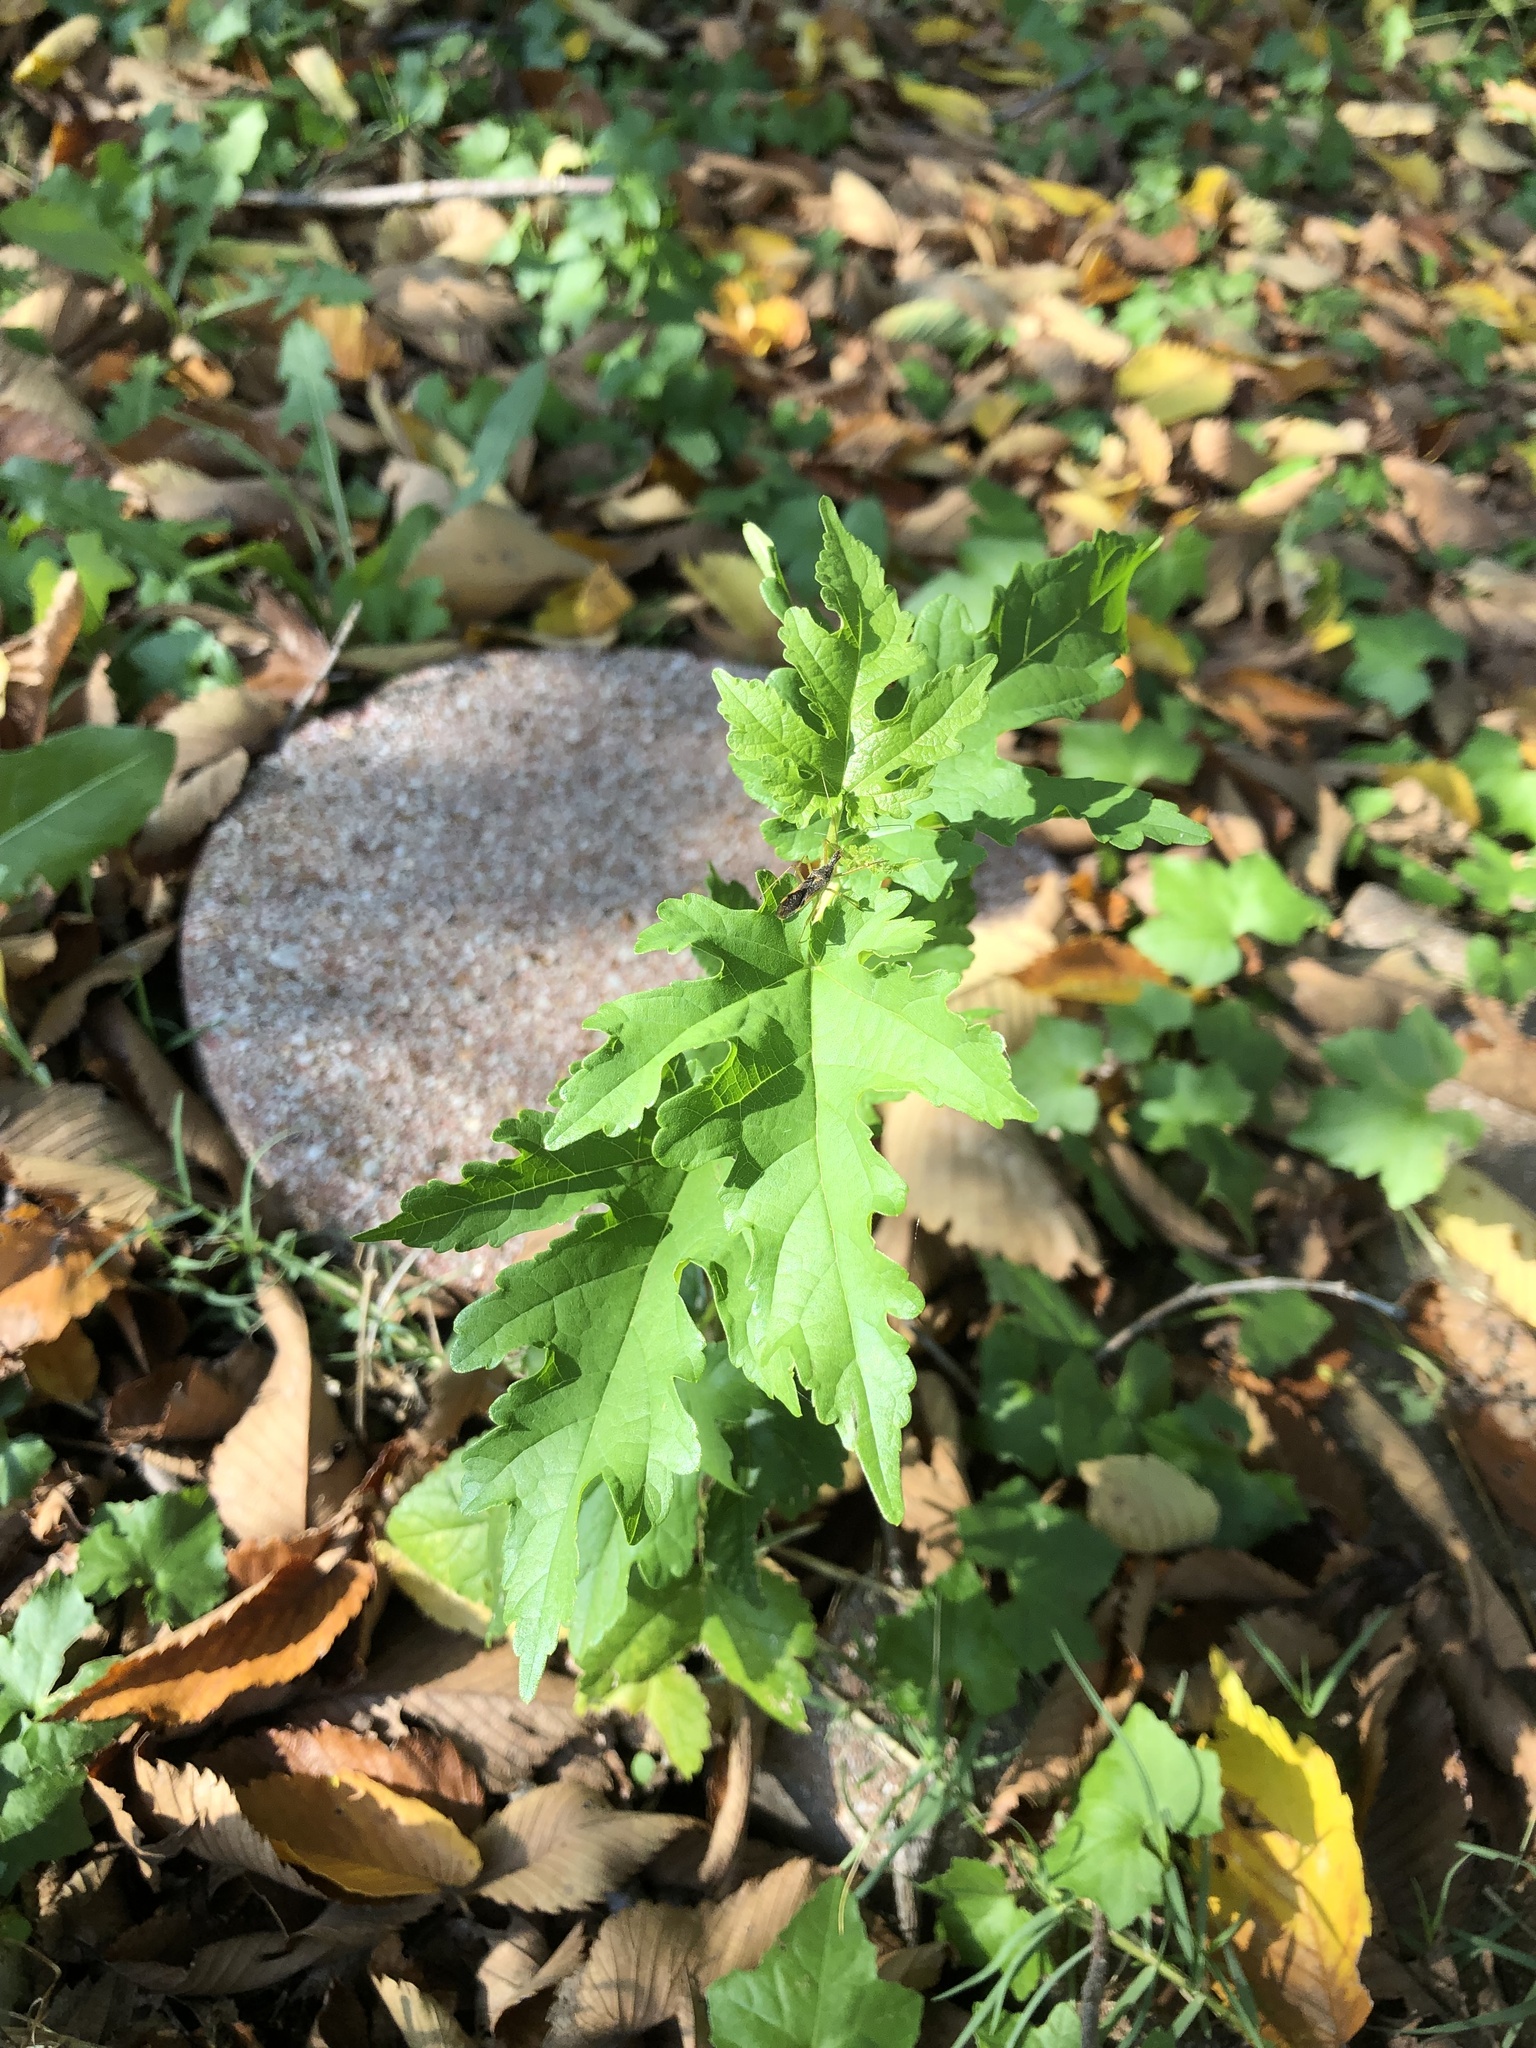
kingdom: Plantae
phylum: Tracheophyta
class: Magnoliopsida
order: Rosales
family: Moraceae
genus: Morus
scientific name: Morus alba
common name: White mulberry
